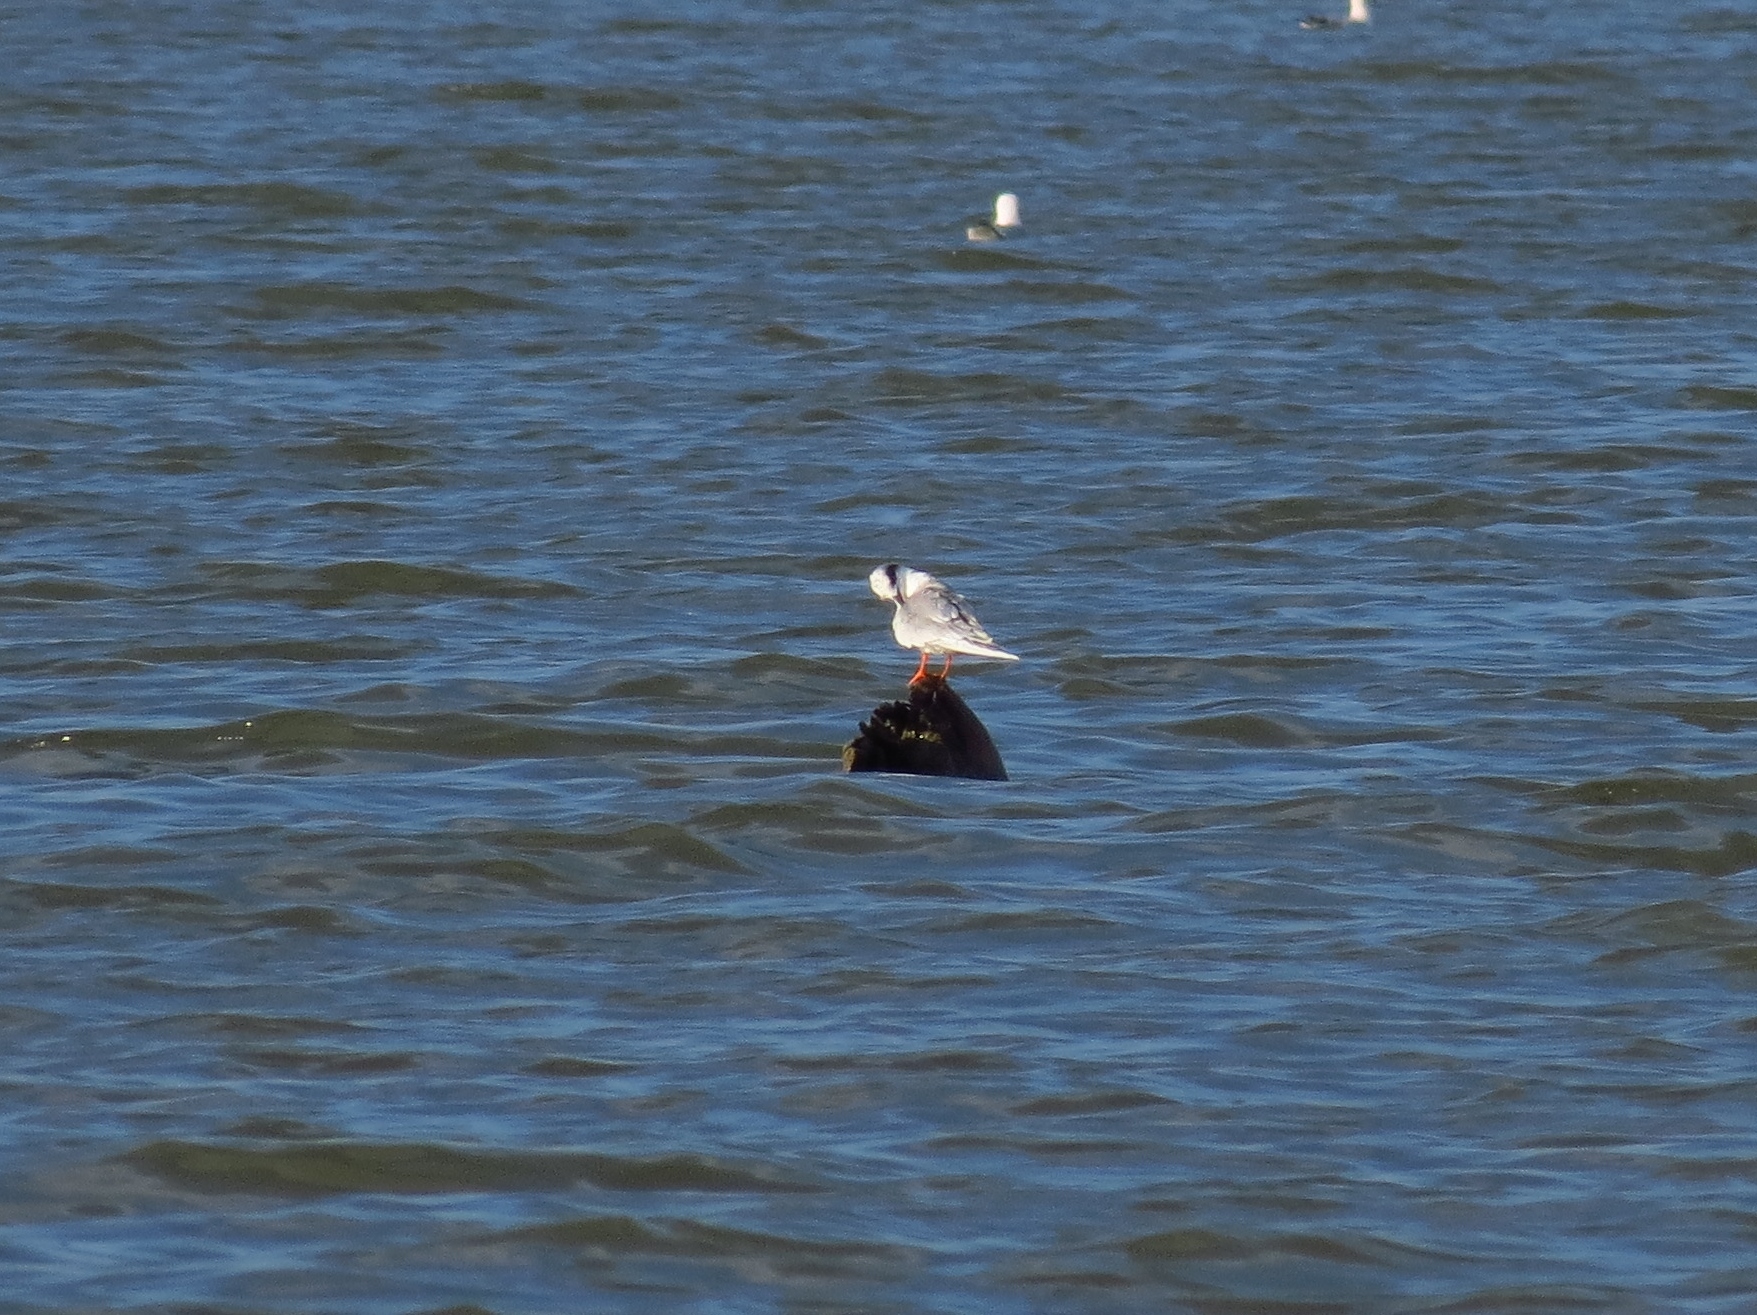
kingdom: Animalia
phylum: Chordata
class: Aves
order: Charadriiformes
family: Laridae
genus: Sterna
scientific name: Sterna forsteri
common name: Forster's tern
